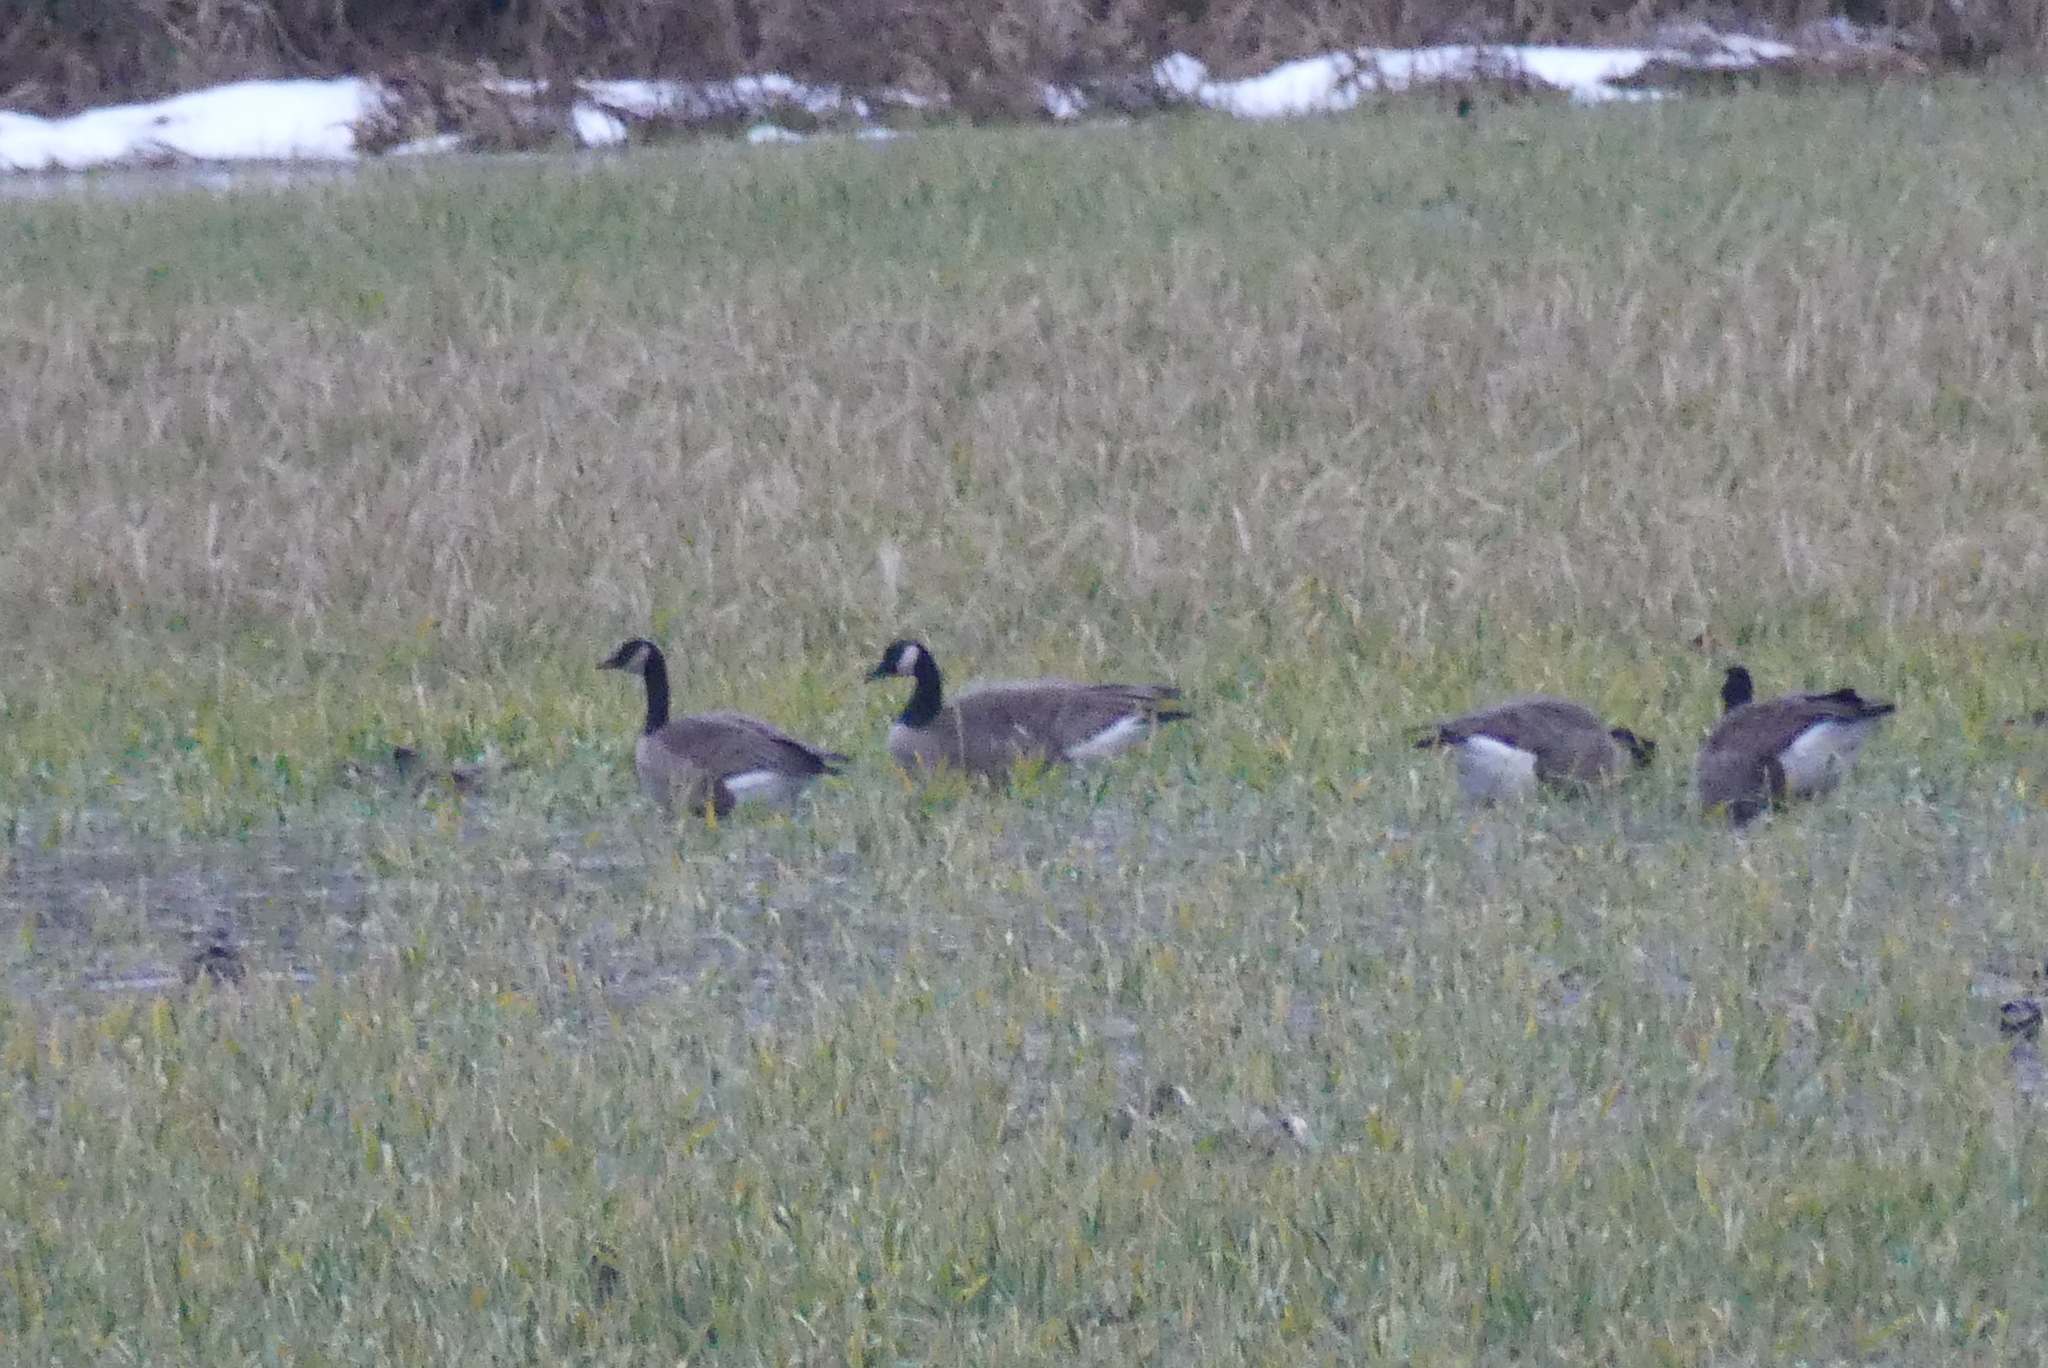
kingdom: Animalia
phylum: Chordata
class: Aves
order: Anseriformes
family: Anatidae
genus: Branta
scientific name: Branta canadensis
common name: Canada goose
